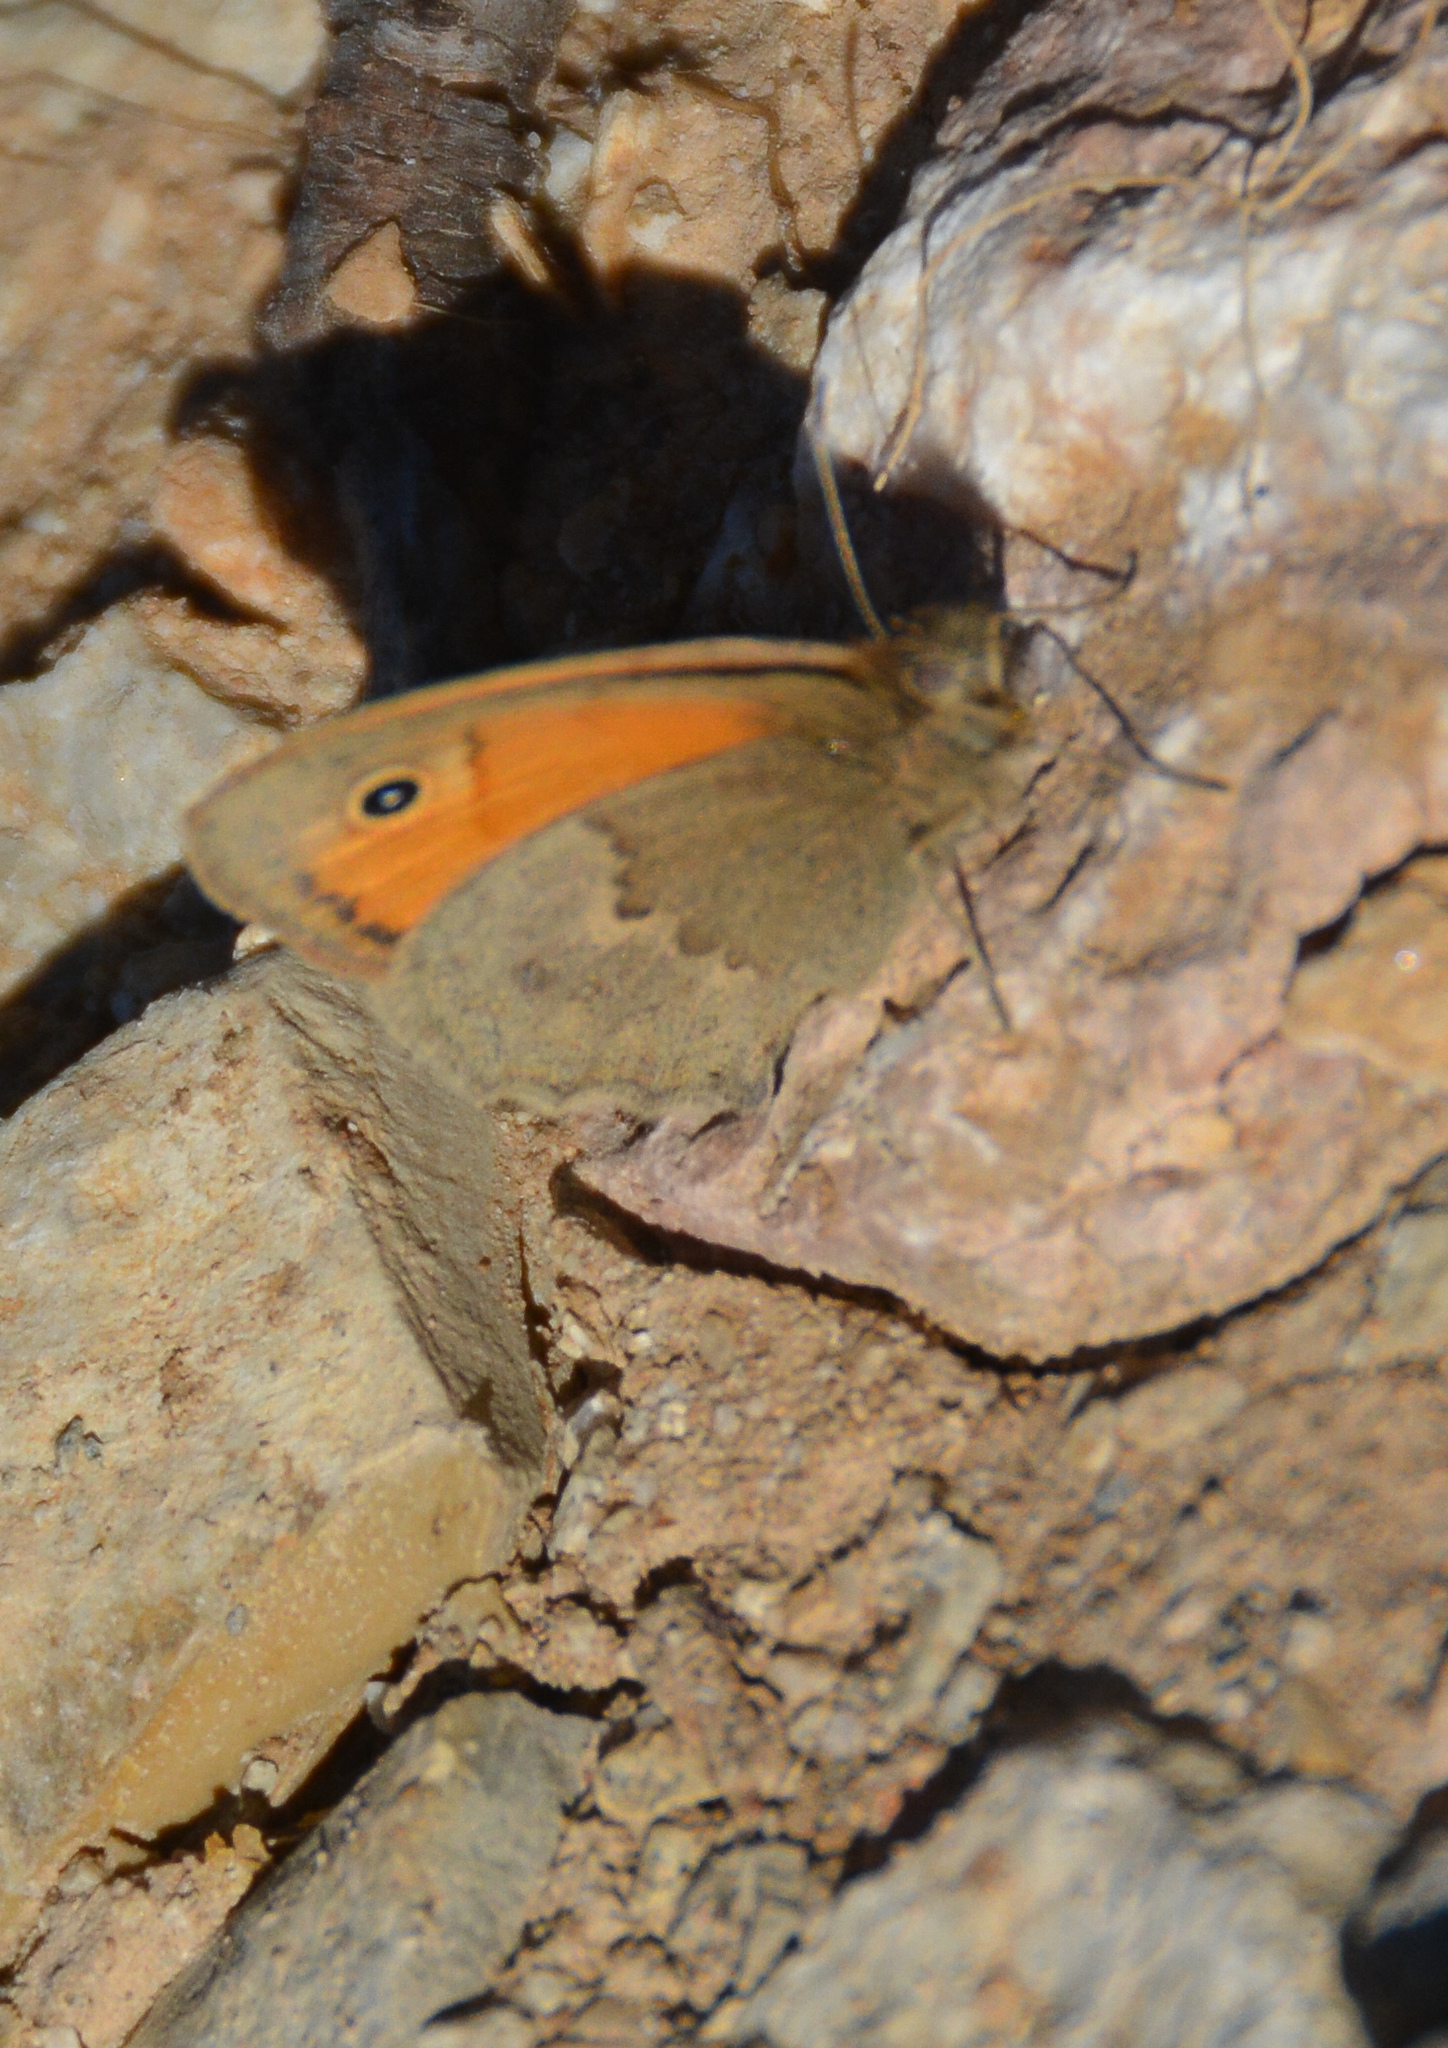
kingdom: Animalia
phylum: Arthropoda
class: Insecta
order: Lepidoptera
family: Nymphalidae
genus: Coenonympha
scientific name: Coenonympha pamphilus
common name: Small heath
